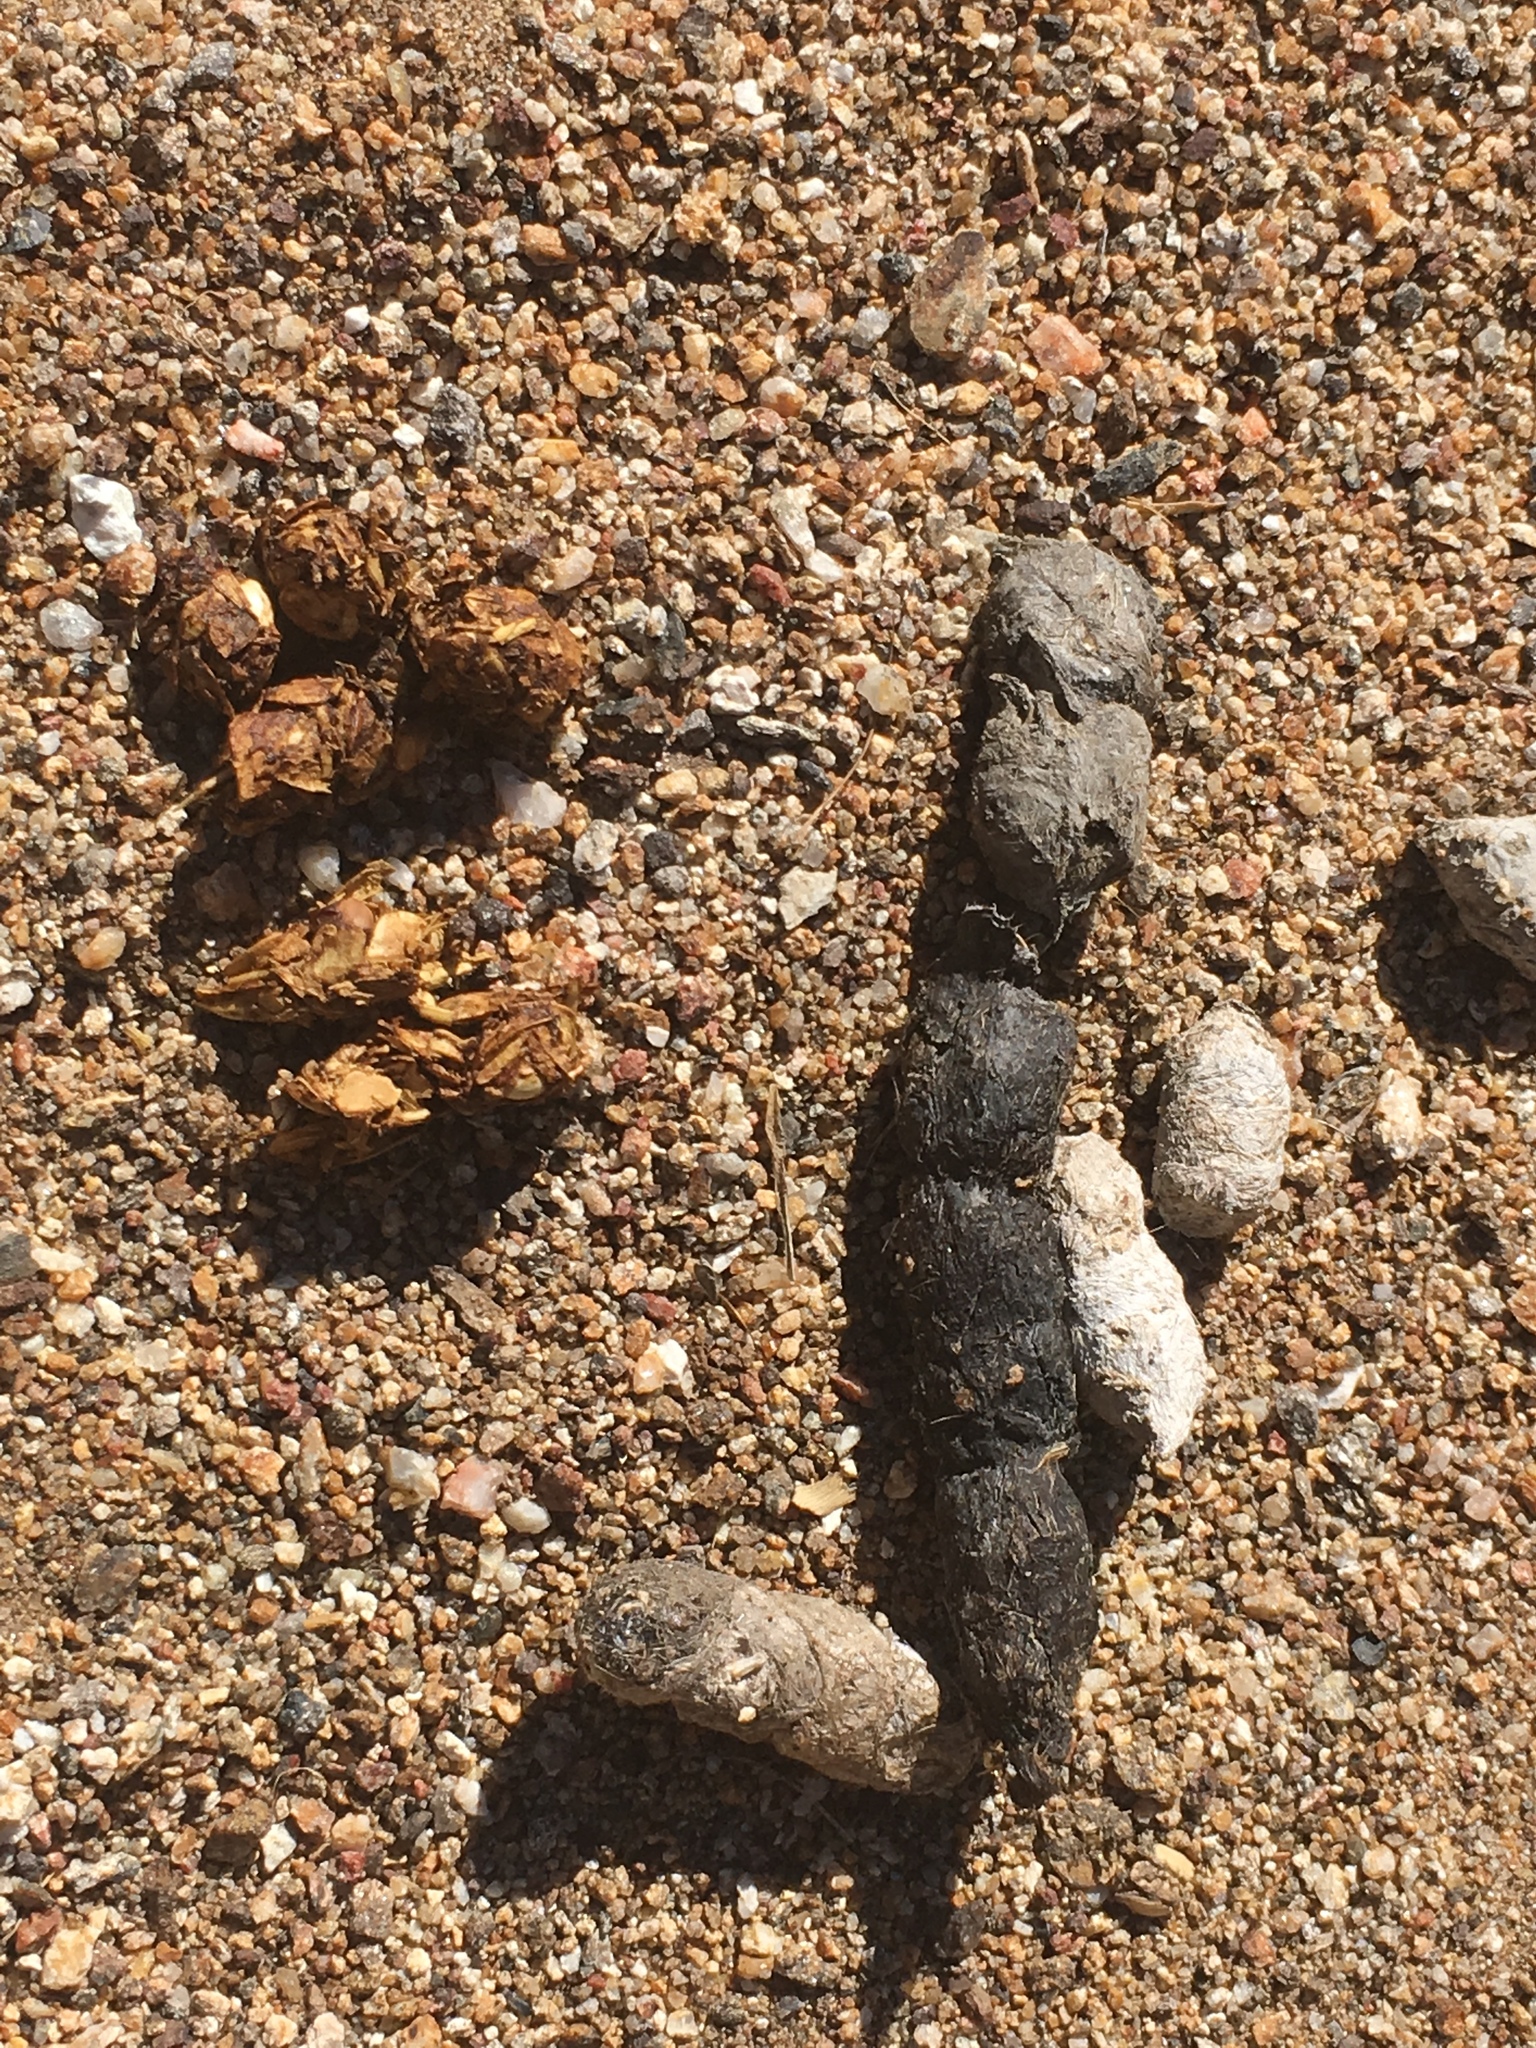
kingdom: Animalia
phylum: Chordata
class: Mammalia
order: Carnivora
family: Canidae
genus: Canis
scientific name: Canis latrans
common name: Coyote
